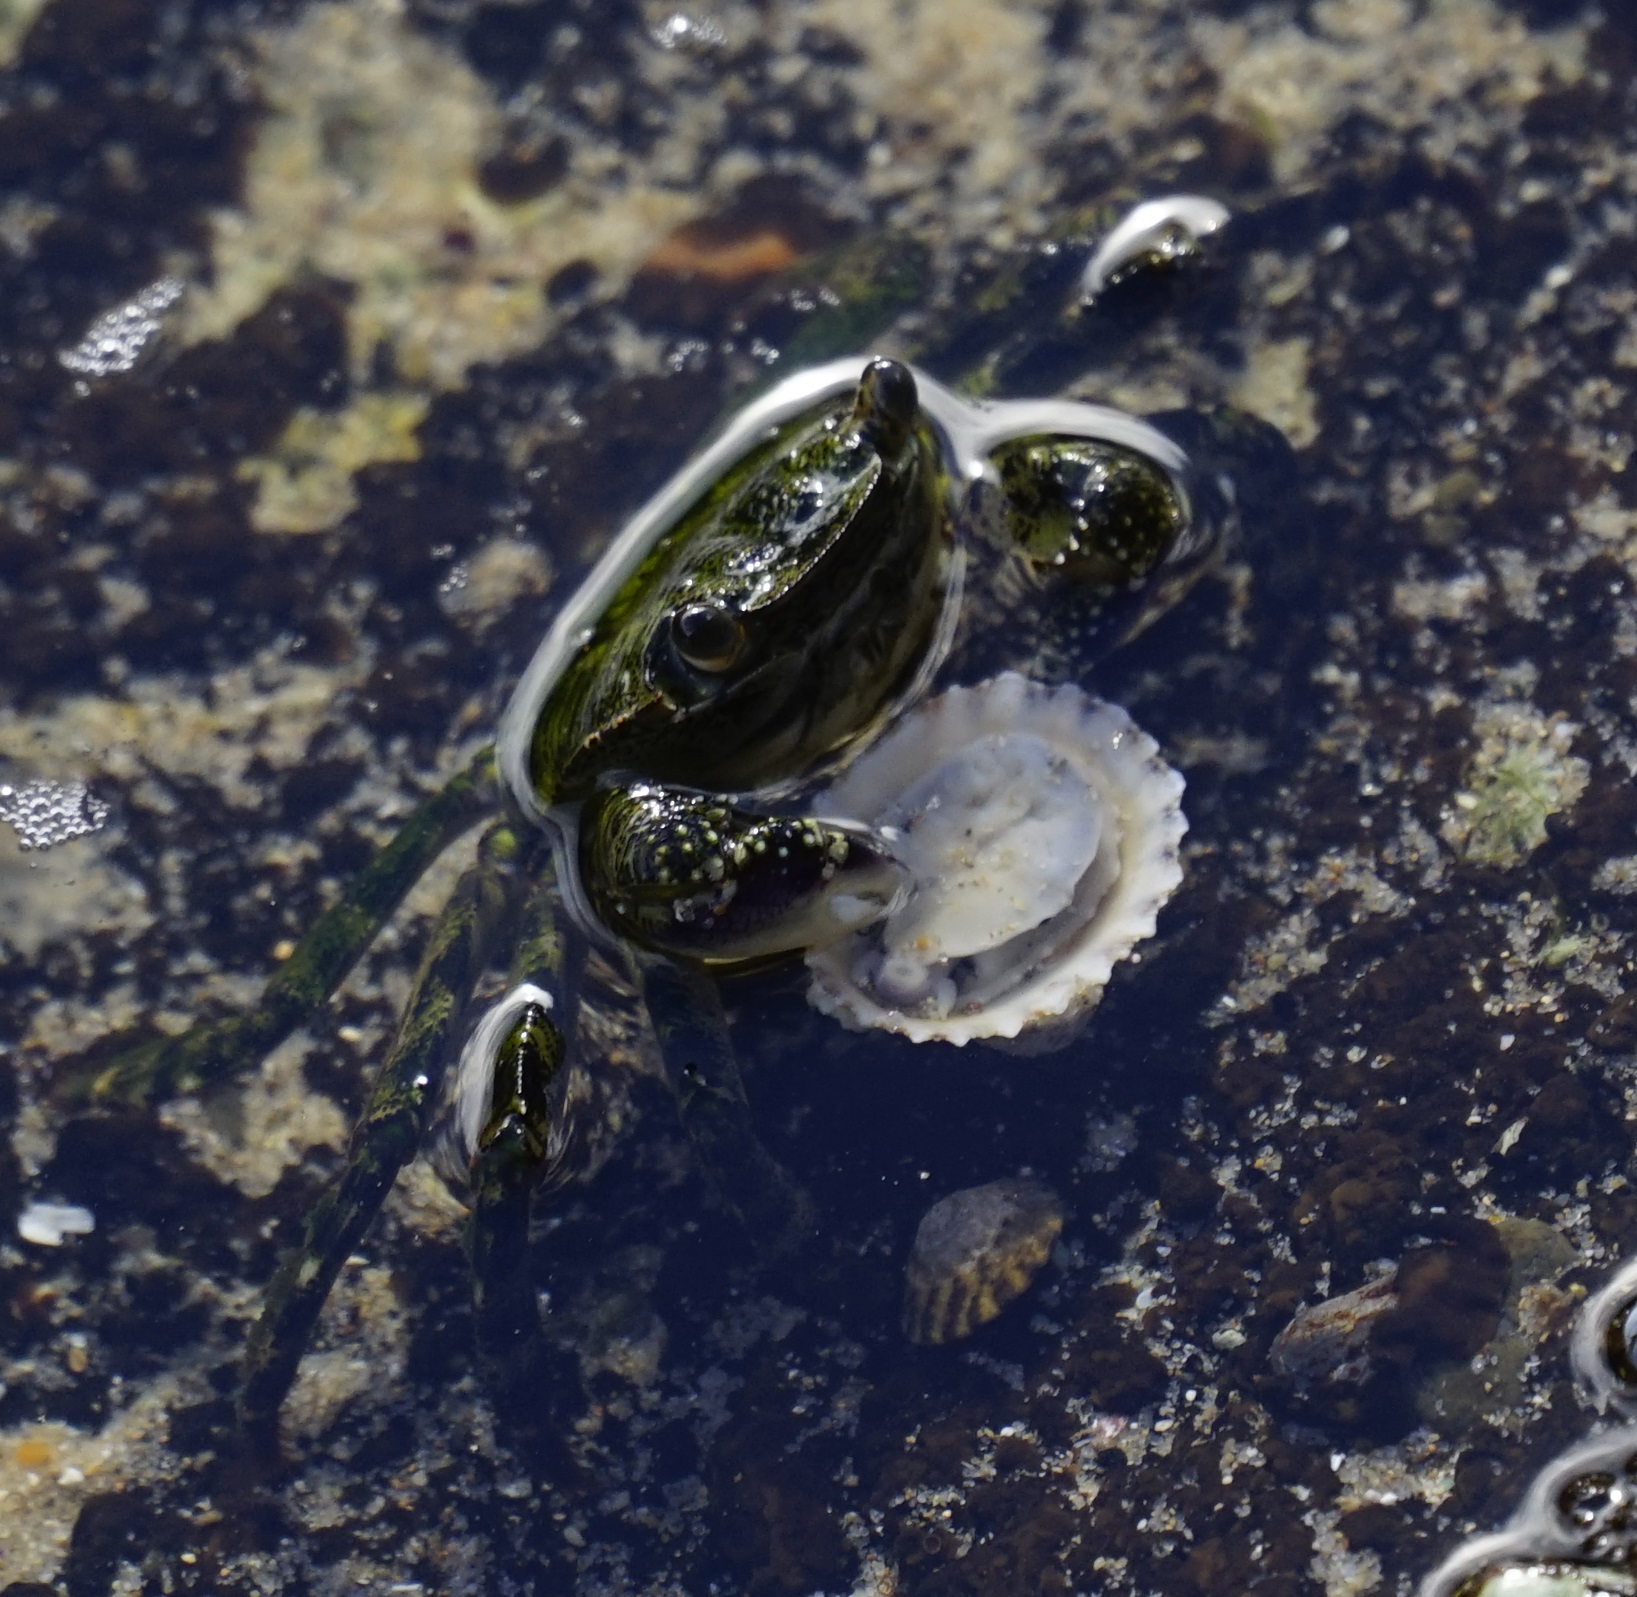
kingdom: Animalia
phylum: Arthropoda
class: Malacostraca
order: Decapoda
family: Grapsidae
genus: Leptograpsus
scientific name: Leptograpsus variegatus
